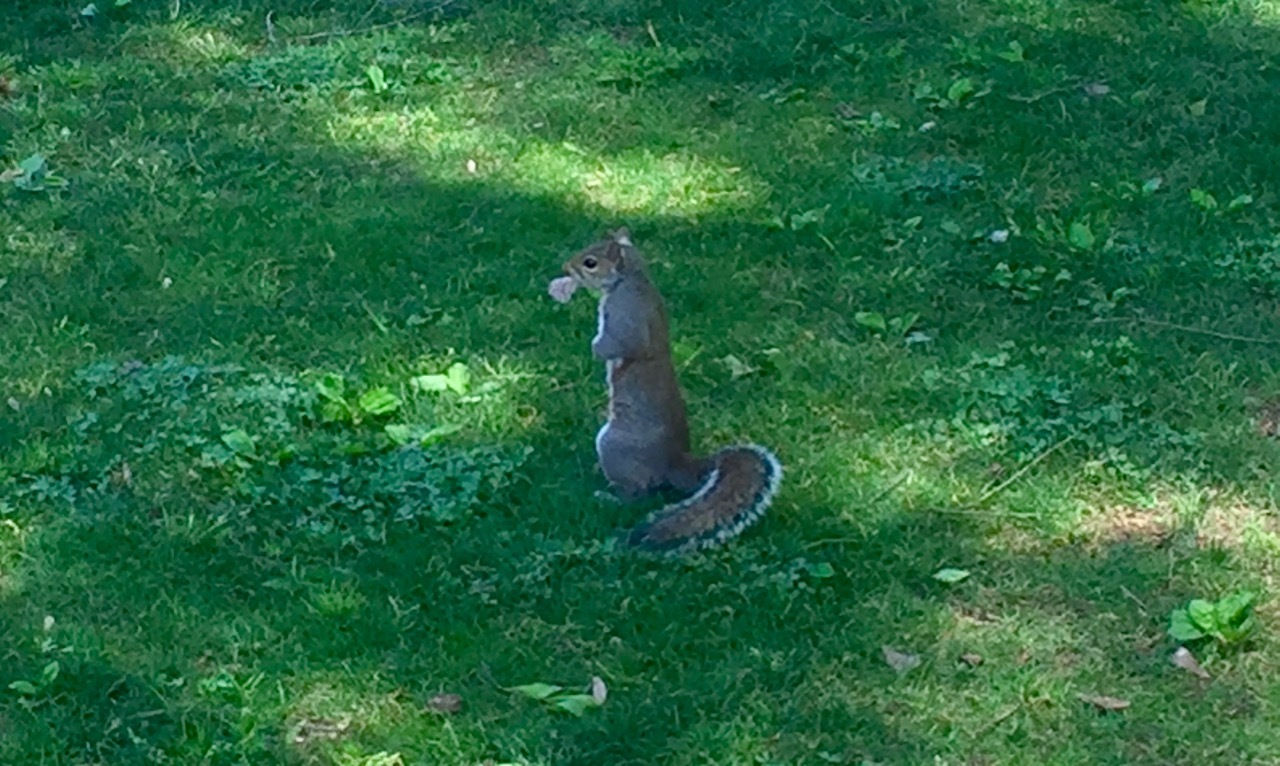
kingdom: Animalia
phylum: Chordata
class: Mammalia
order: Rodentia
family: Sciuridae
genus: Sciurus
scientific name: Sciurus carolinensis
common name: Eastern gray squirrel
